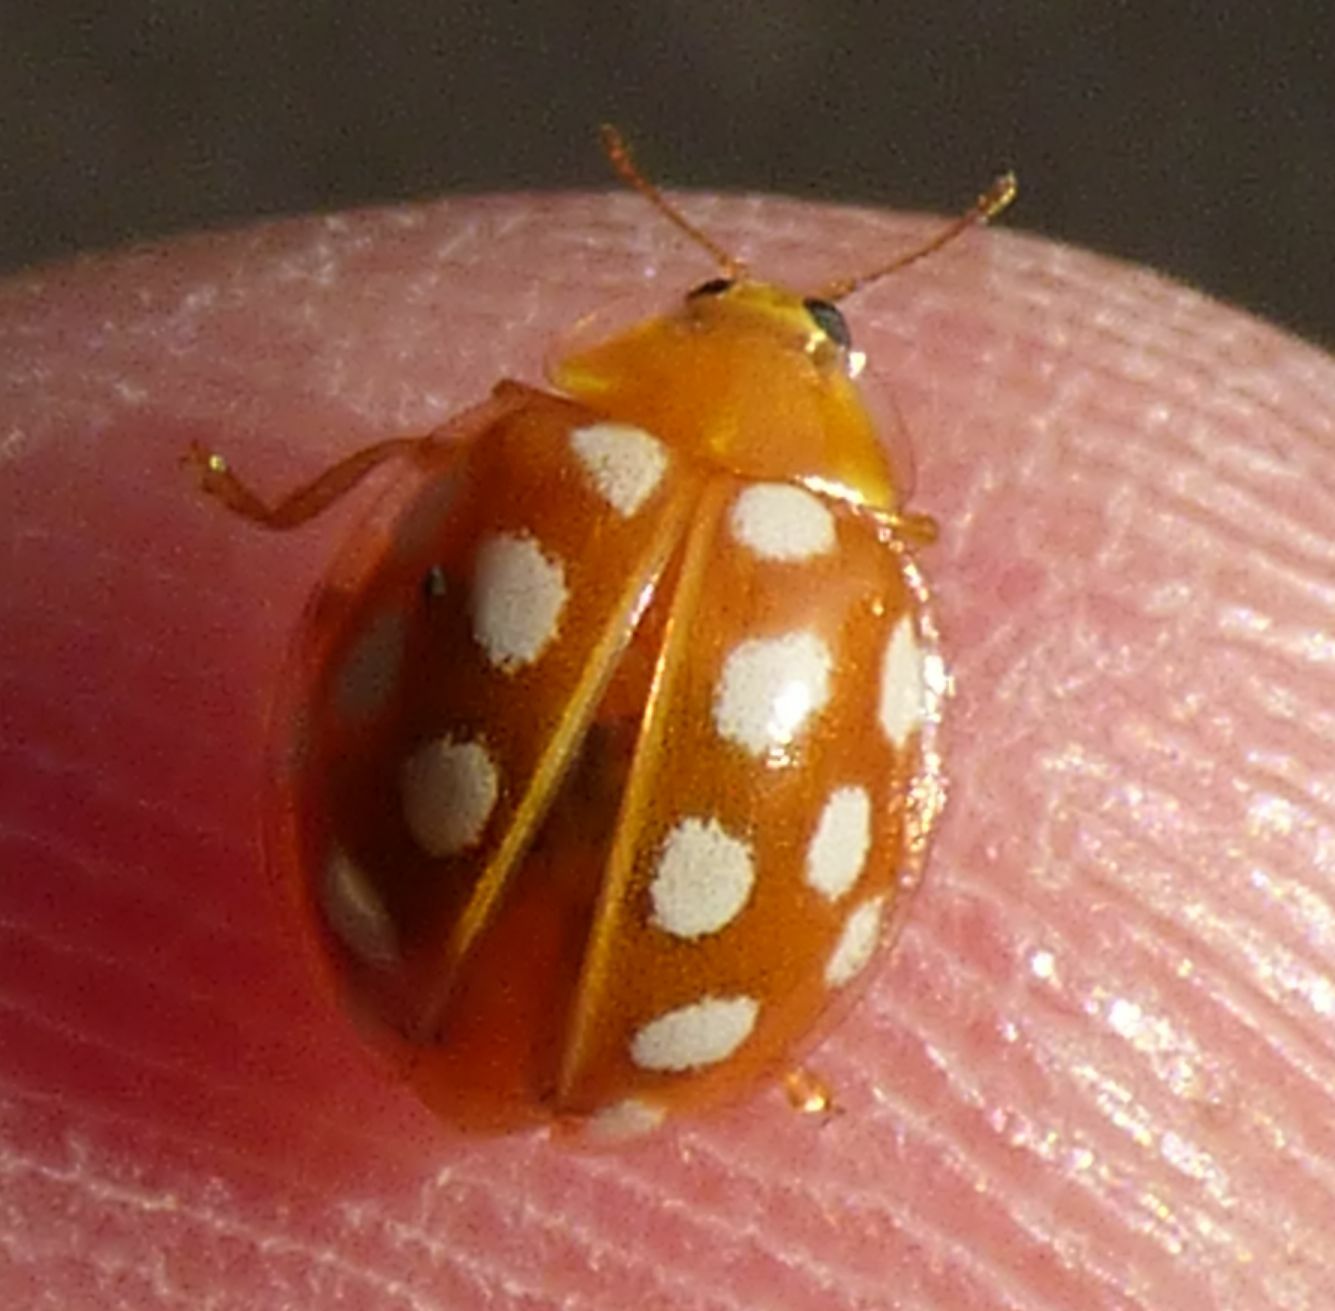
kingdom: Animalia
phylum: Arthropoda
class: Insecta
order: Coleoptera
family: Coccinellidae
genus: Halyzia
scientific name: Halyzia sedecimguttata
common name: Orange ladybird
